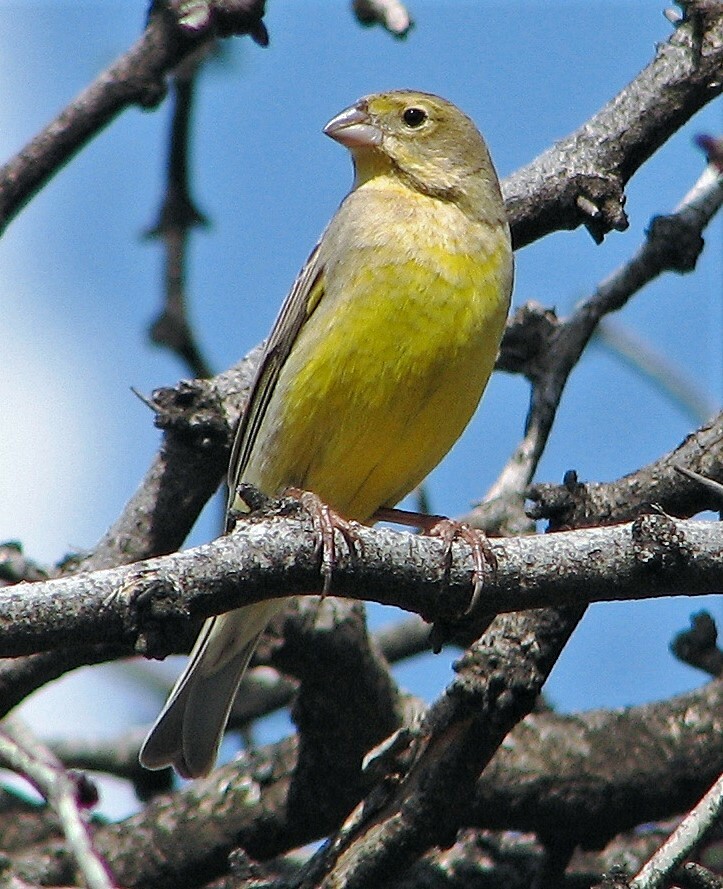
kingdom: Animalia
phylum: Chordata
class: Aves
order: Passeriformes
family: Thraupidae
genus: Sicalis
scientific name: Sicalis luteola
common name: Grassland yellow-finch
